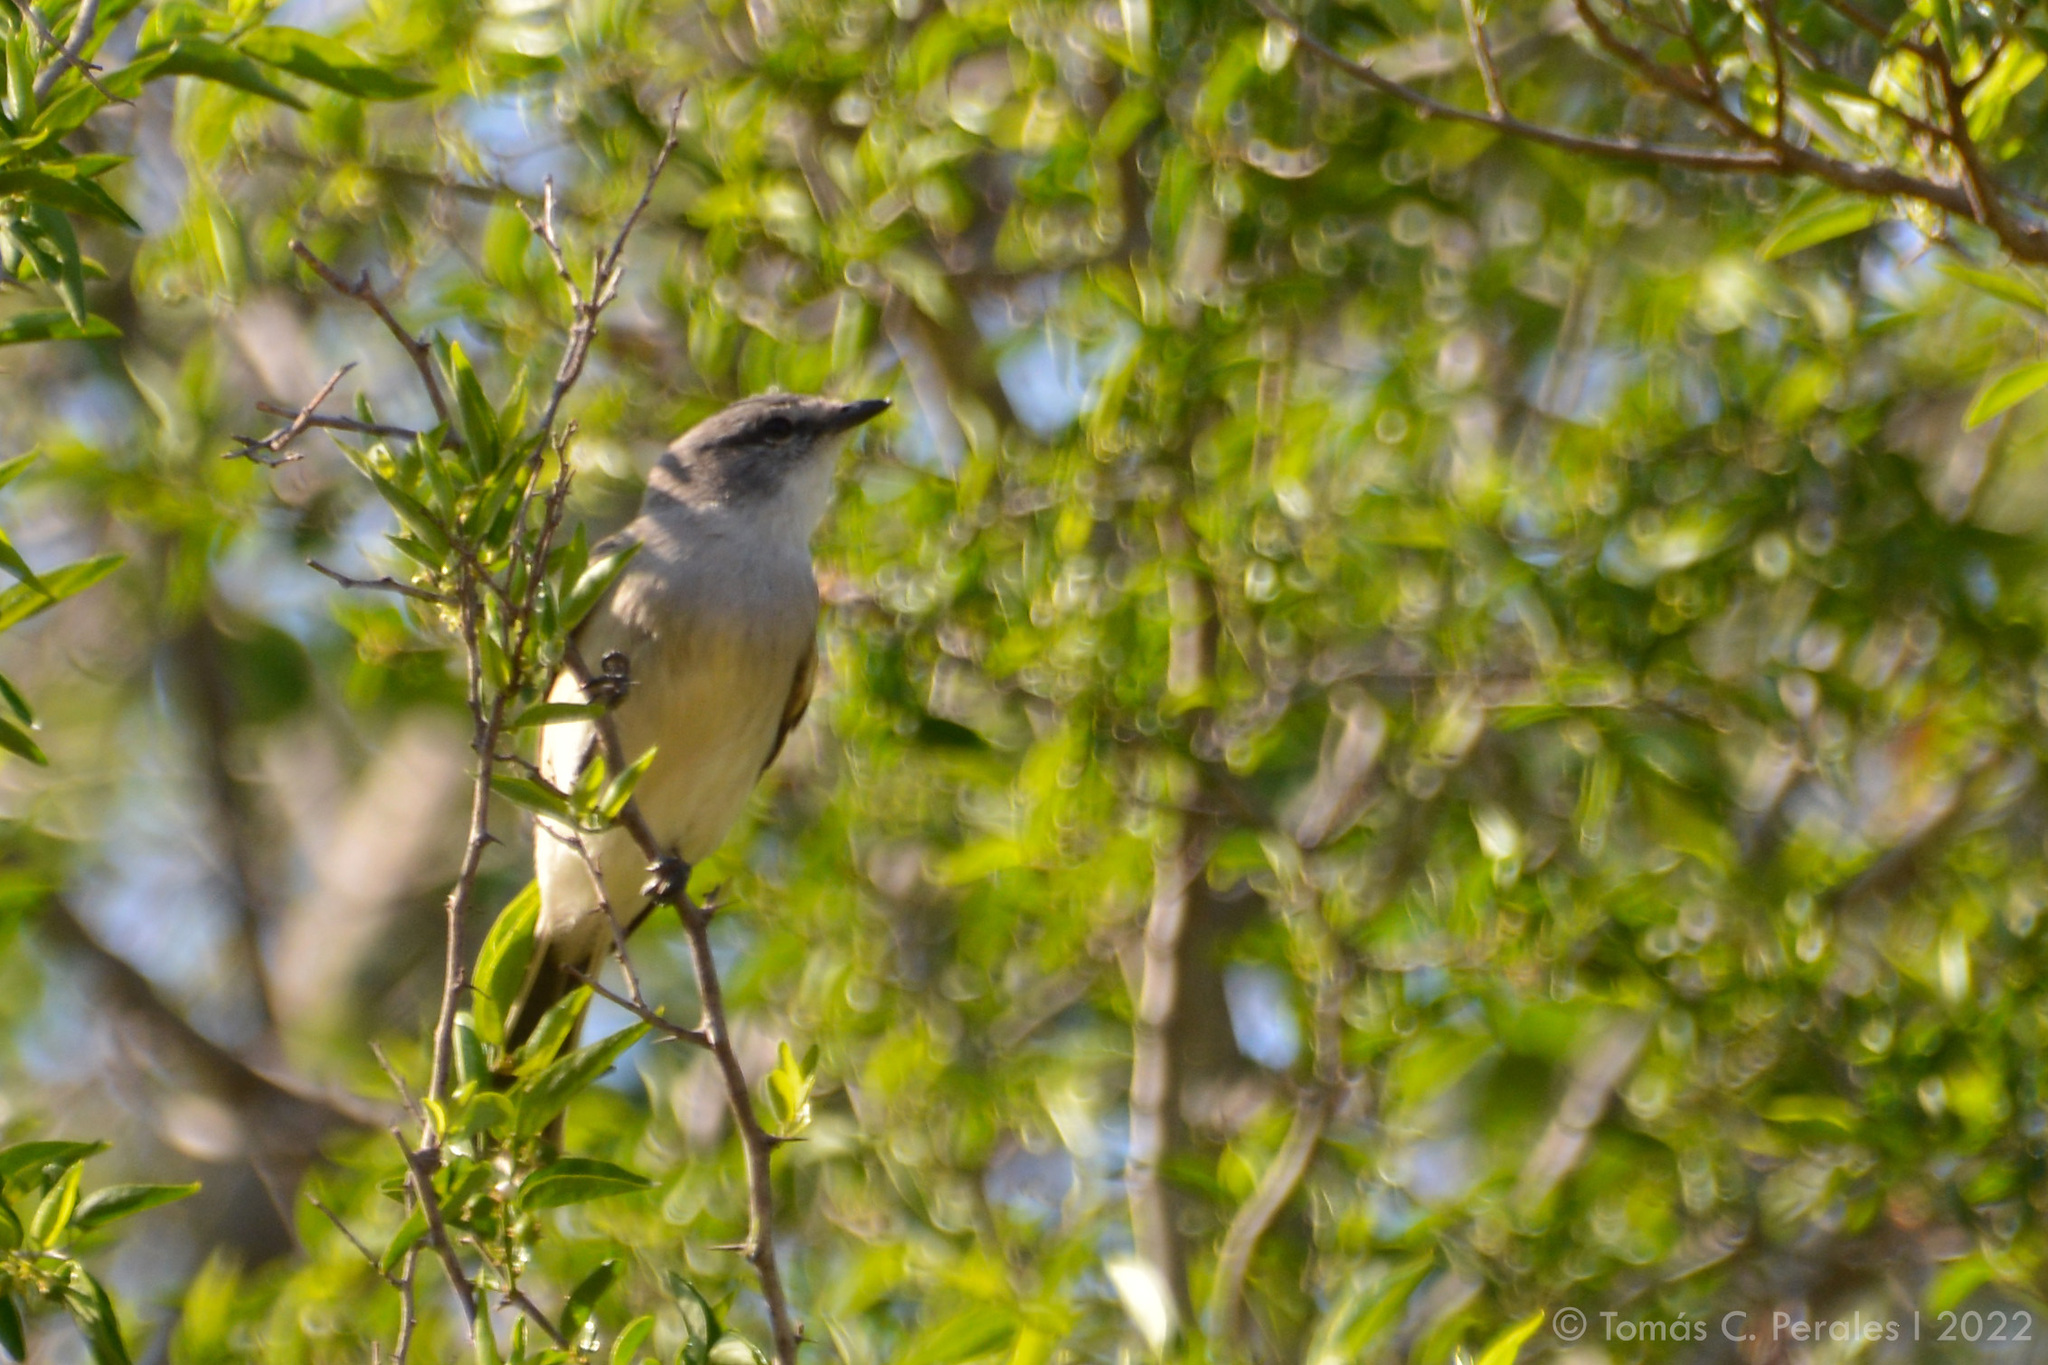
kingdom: Animalia
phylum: Chordata
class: Aves
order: Passeriformes
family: Tyrannidae
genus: Suiriri
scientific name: Suiriri suiriri
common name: Suiriri flycatcher
